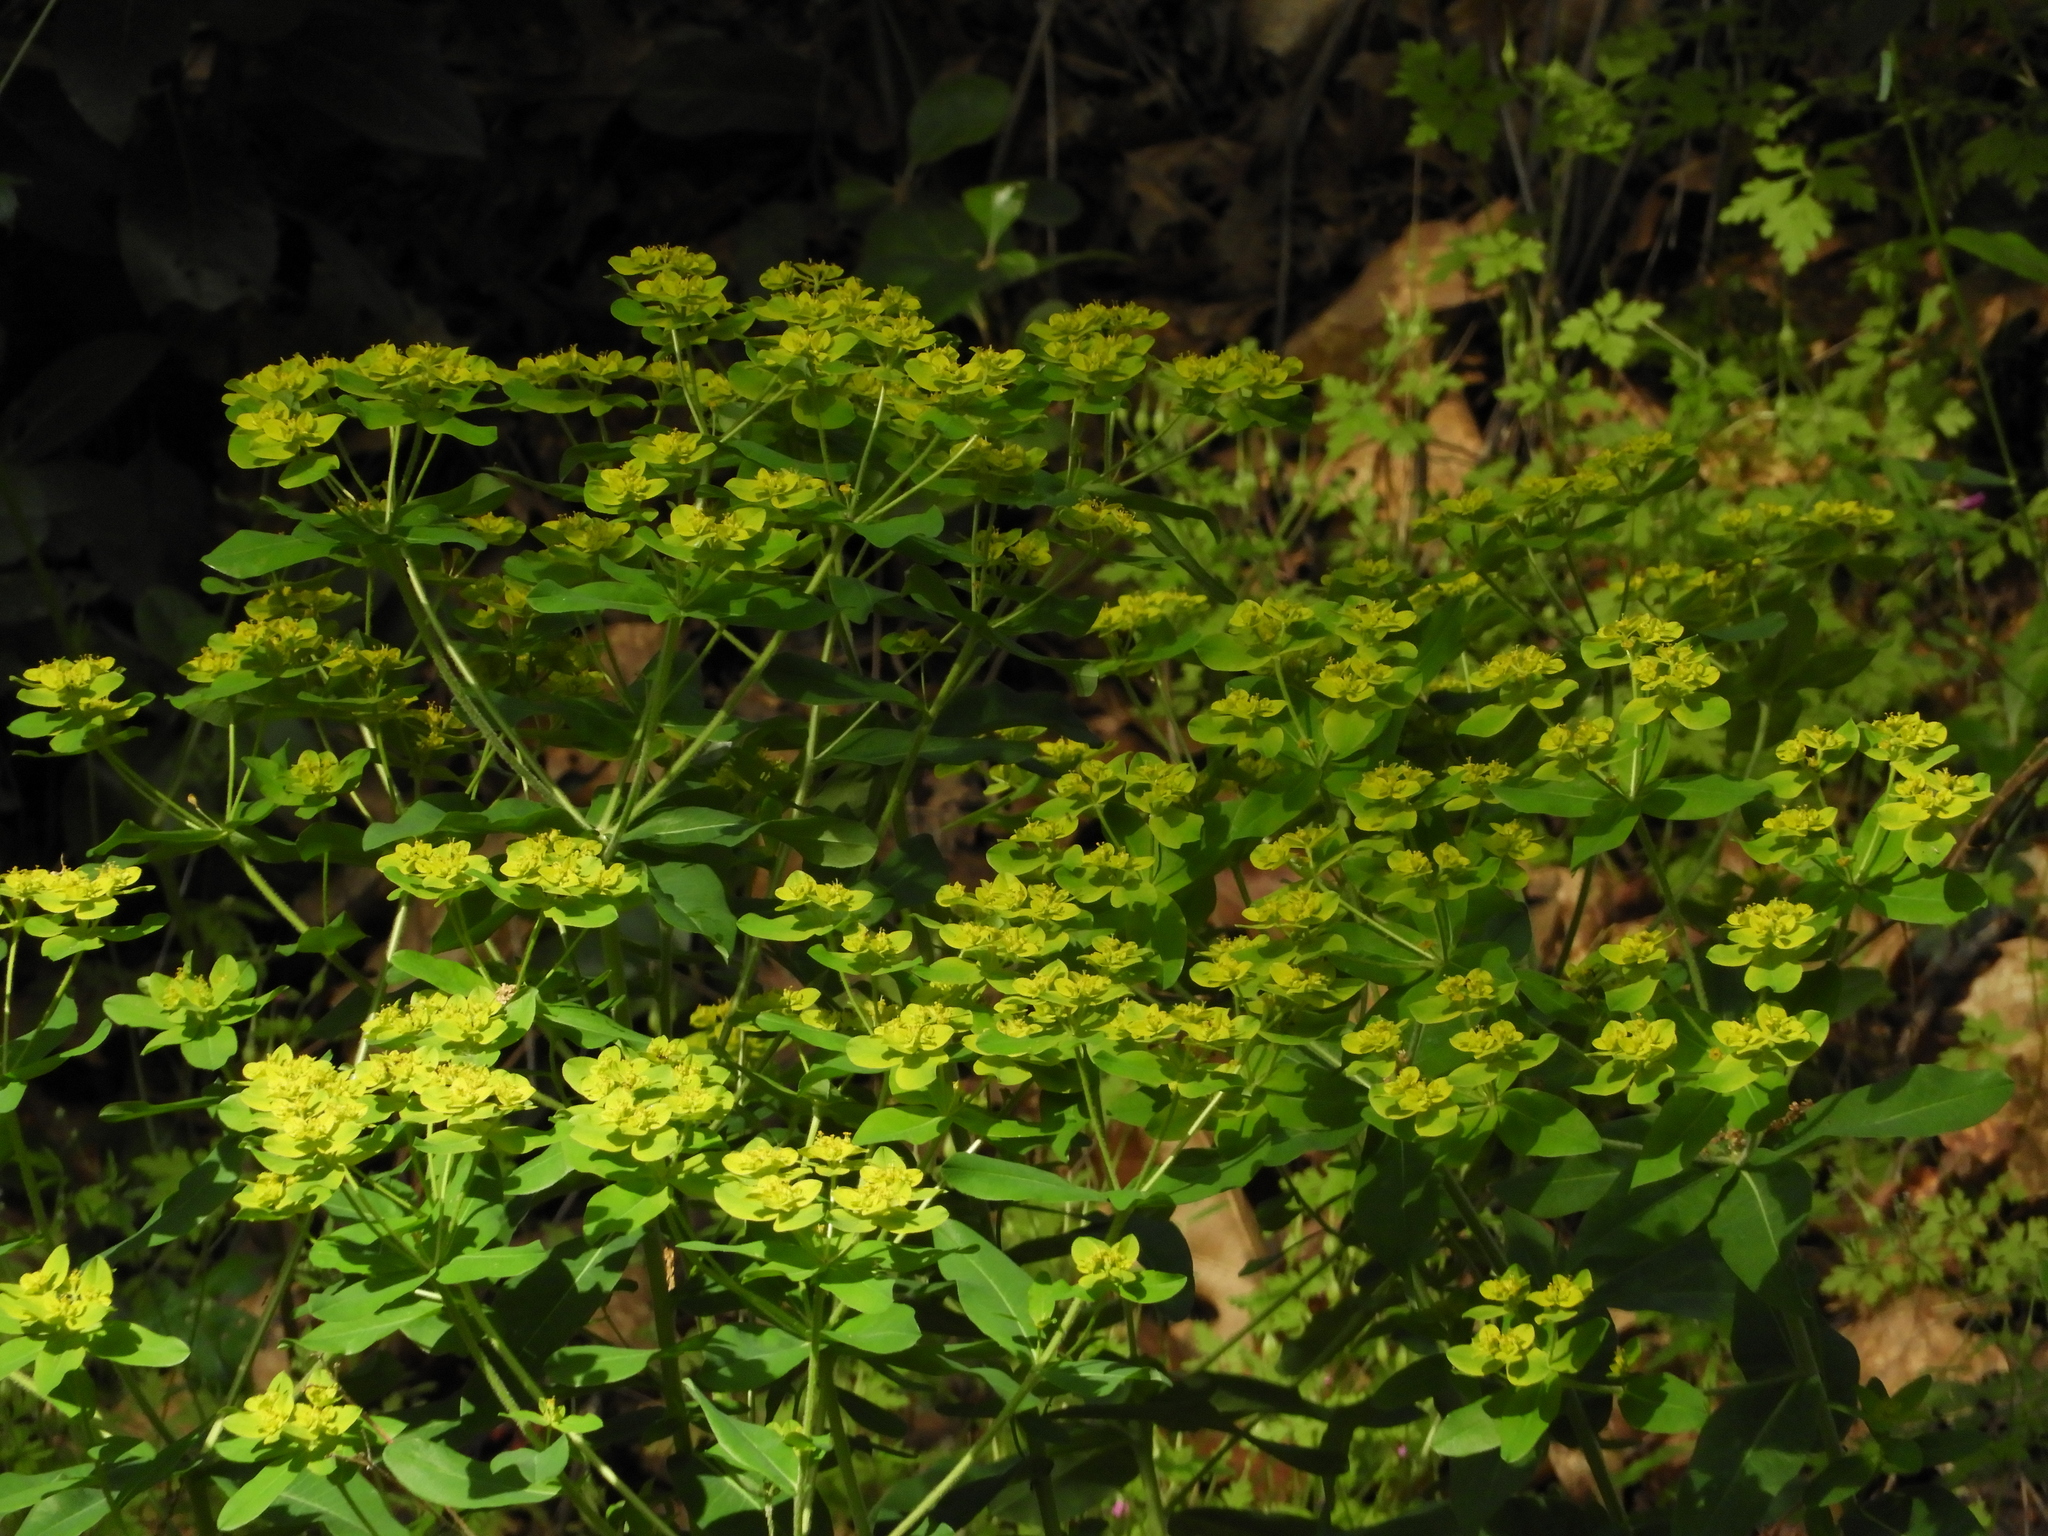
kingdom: Plantae
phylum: Tracheophyta
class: Magnoliopsida
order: Malpighiales
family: Euphorbiaceae
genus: Euphorbia
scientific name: Euphorbia oblongata
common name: Balkan spurge
